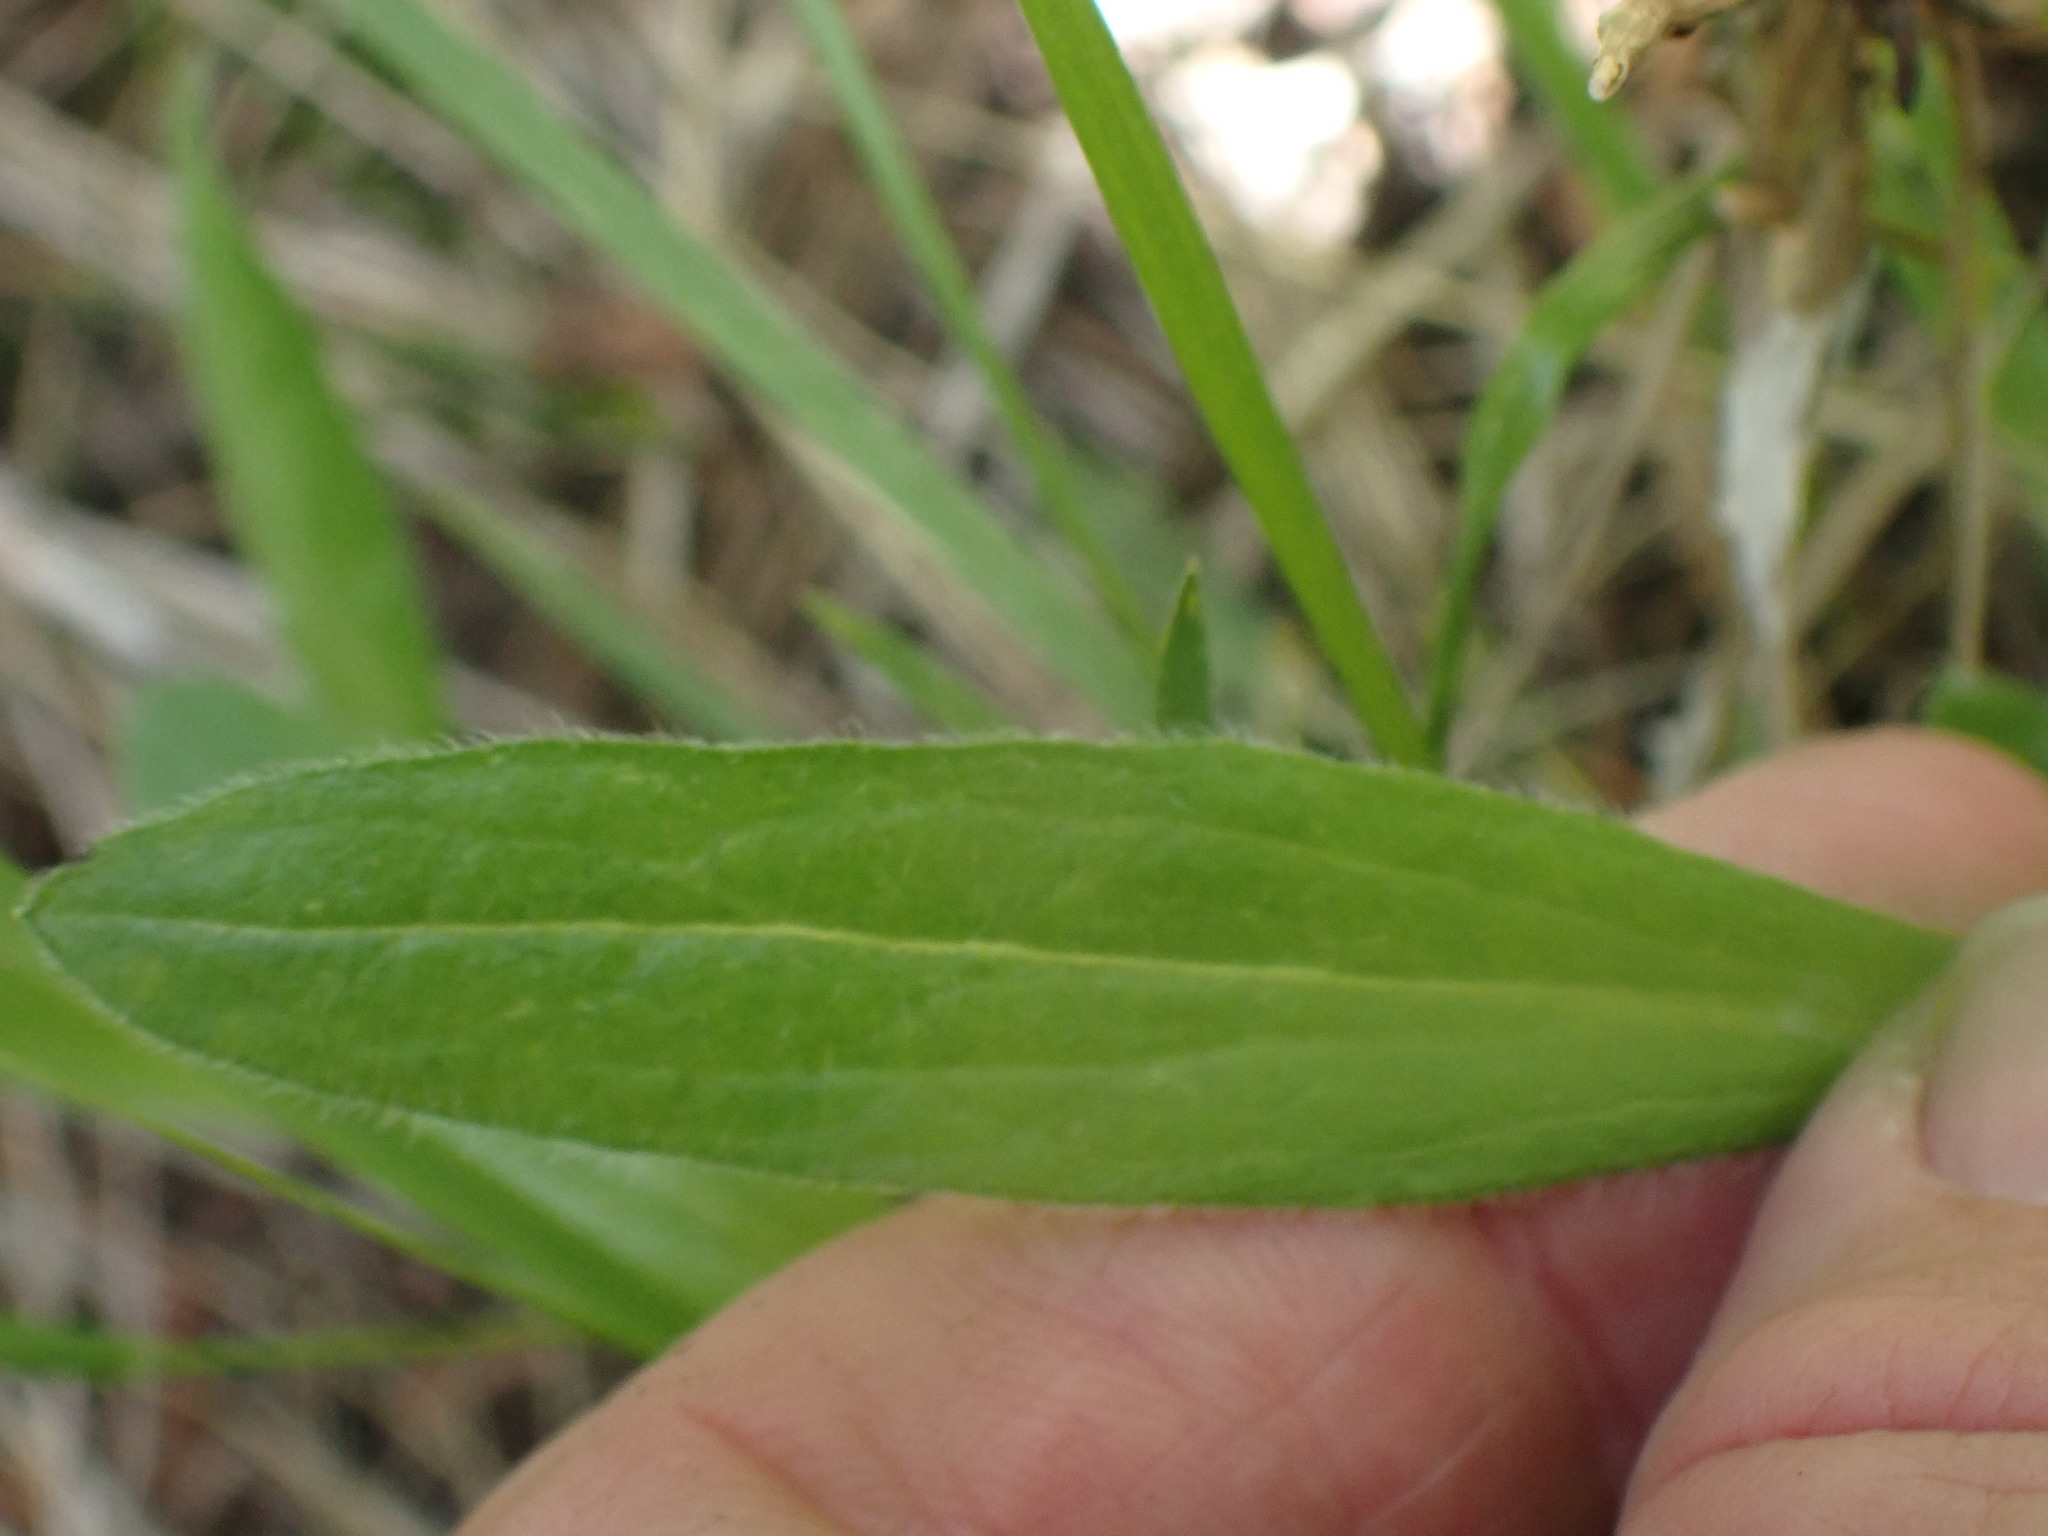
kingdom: Plantae
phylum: Tracheophyta
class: Liliopsida
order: Liliales
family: Liliaceae
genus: Fritillaria
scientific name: Fritillaria affinis
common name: Ojai fritillary
